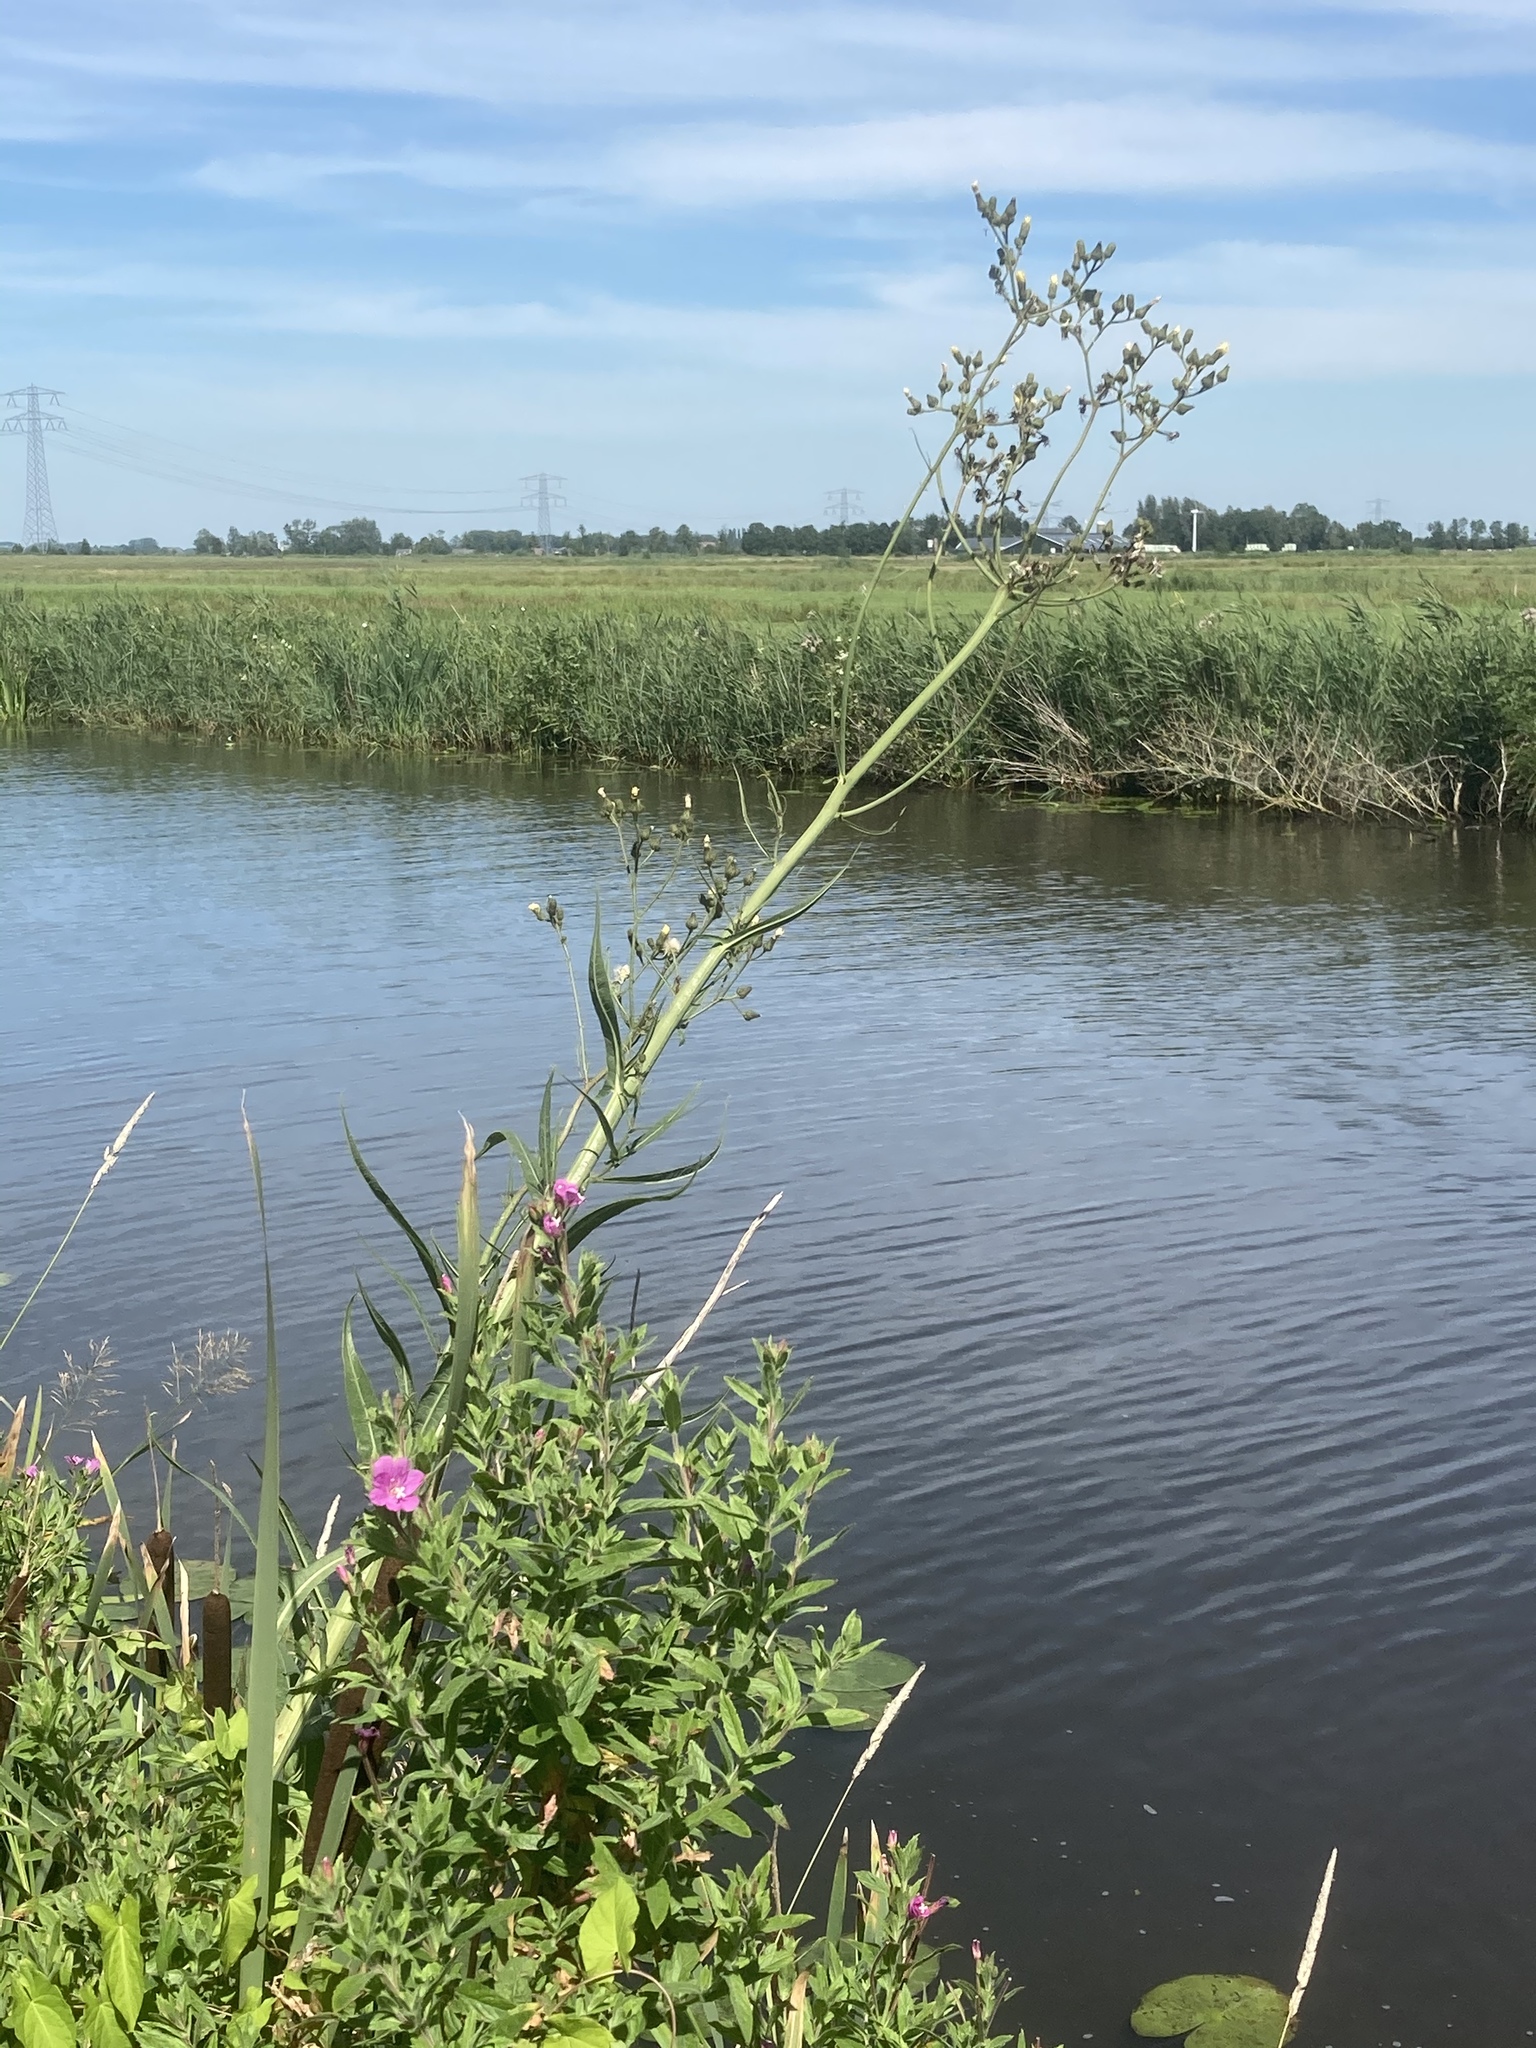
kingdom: Plantae
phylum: Tracheophyta
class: Magnoliopsida
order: Asterales
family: Asteraceae
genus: Sonchus
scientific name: Sonchus palustris
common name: Marsh sow-thistle
